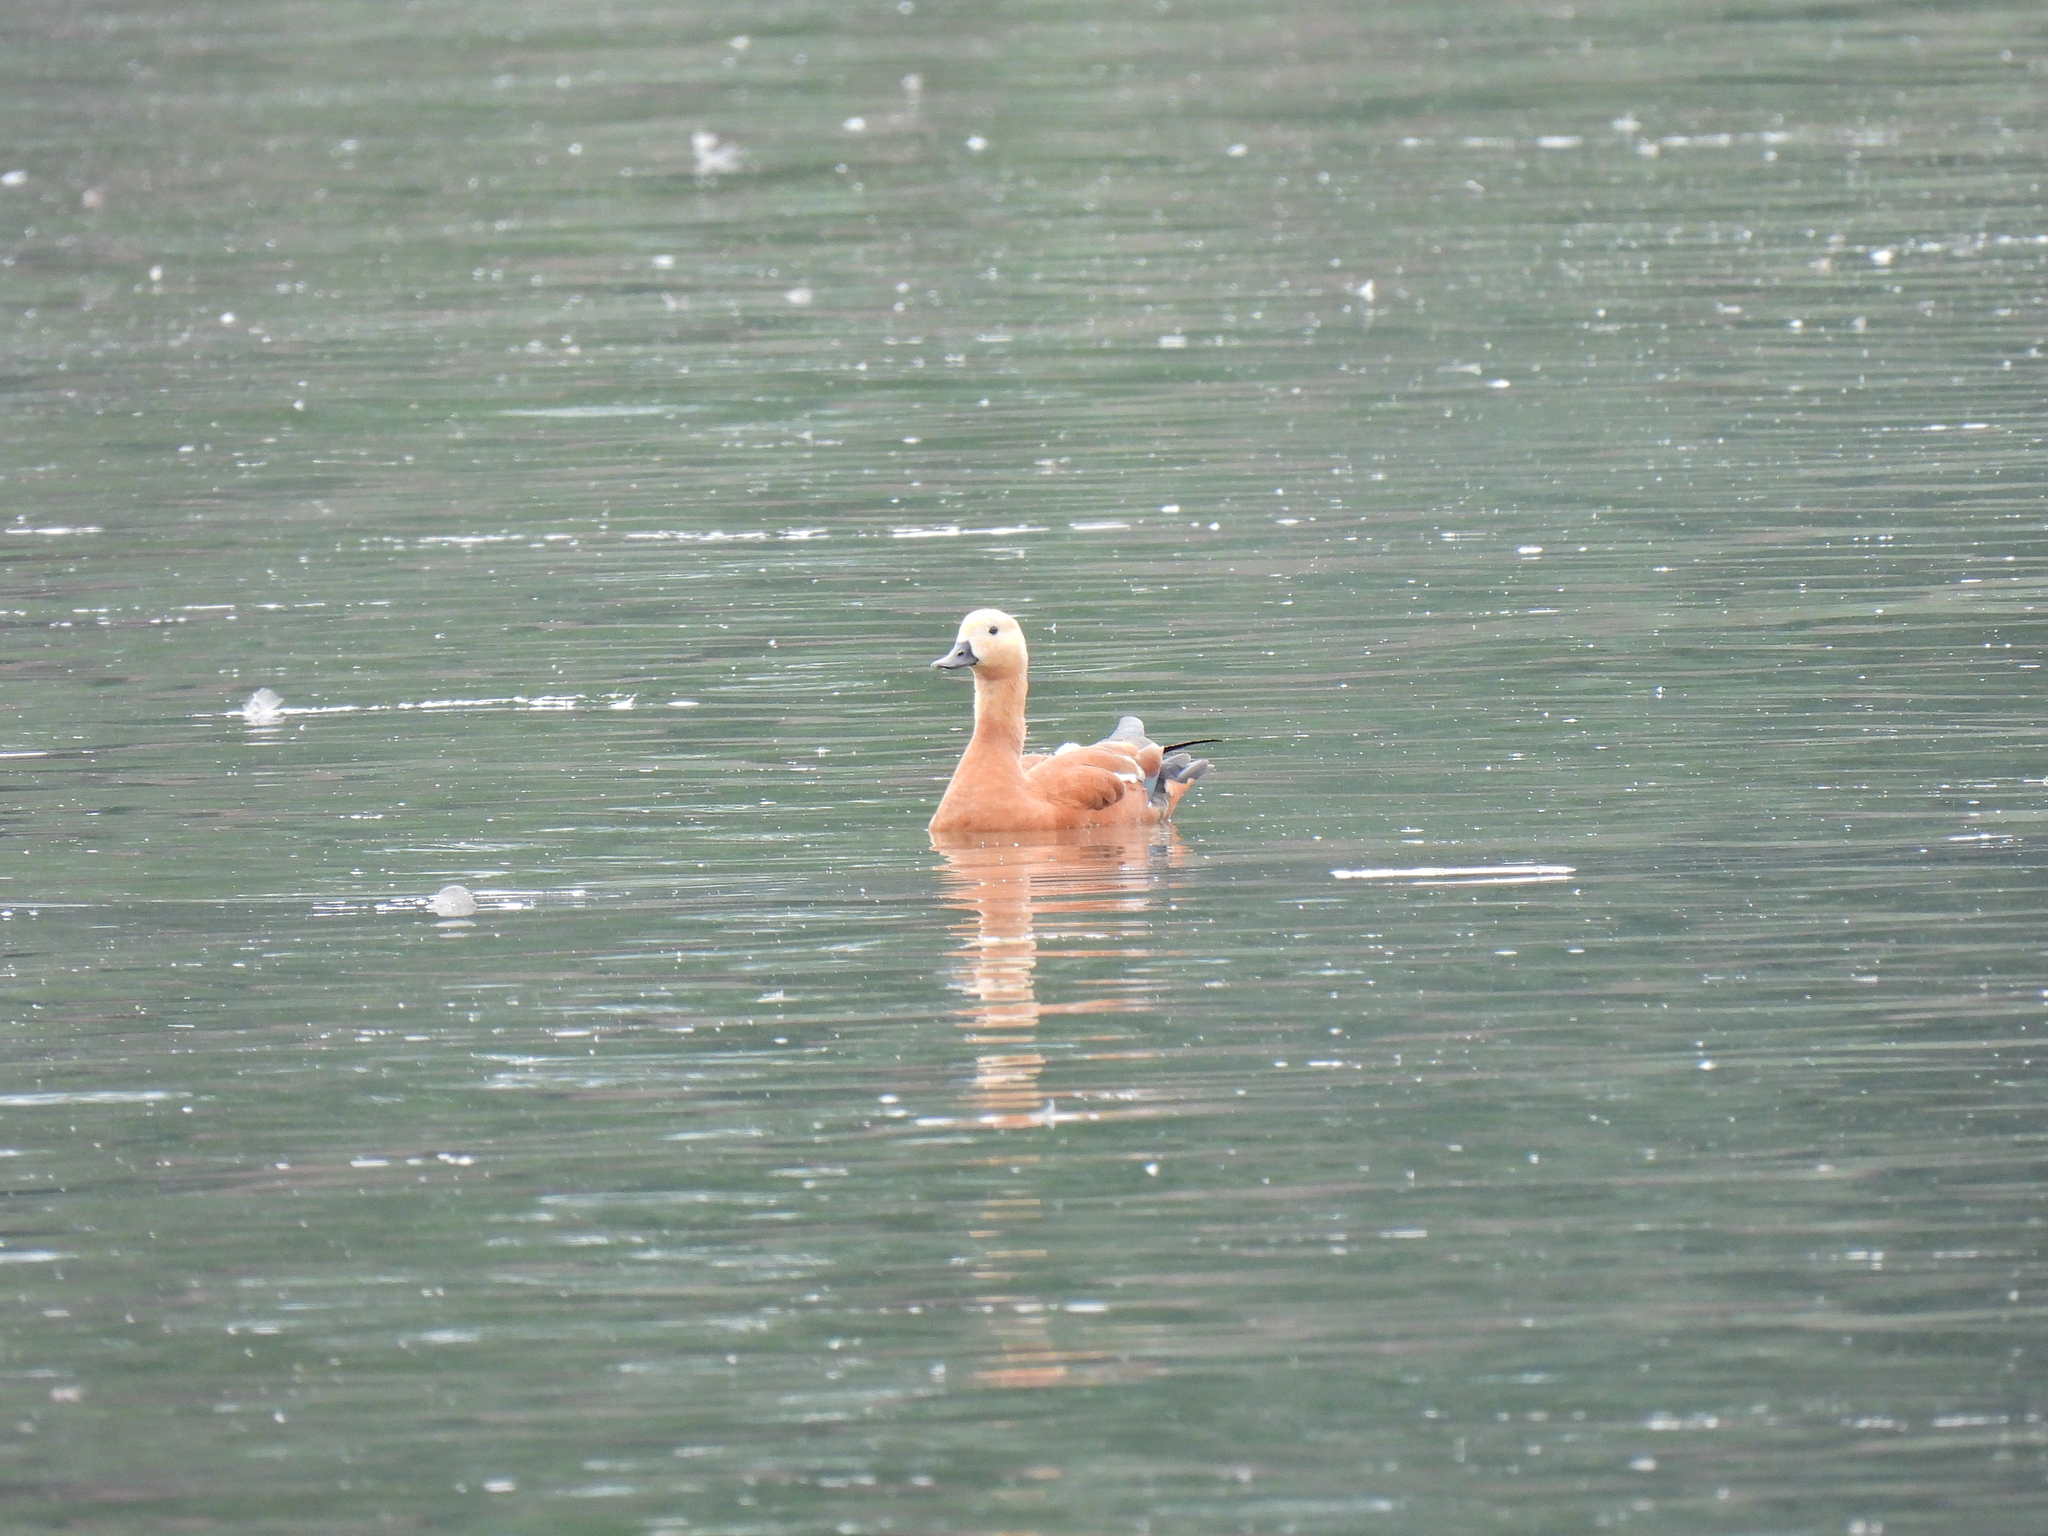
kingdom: Animalia
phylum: Chordata
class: Aves
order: Anseriformes
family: Anatidae
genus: Tadorna
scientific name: Tadorna ferruginea
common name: Ruddy shelduck
